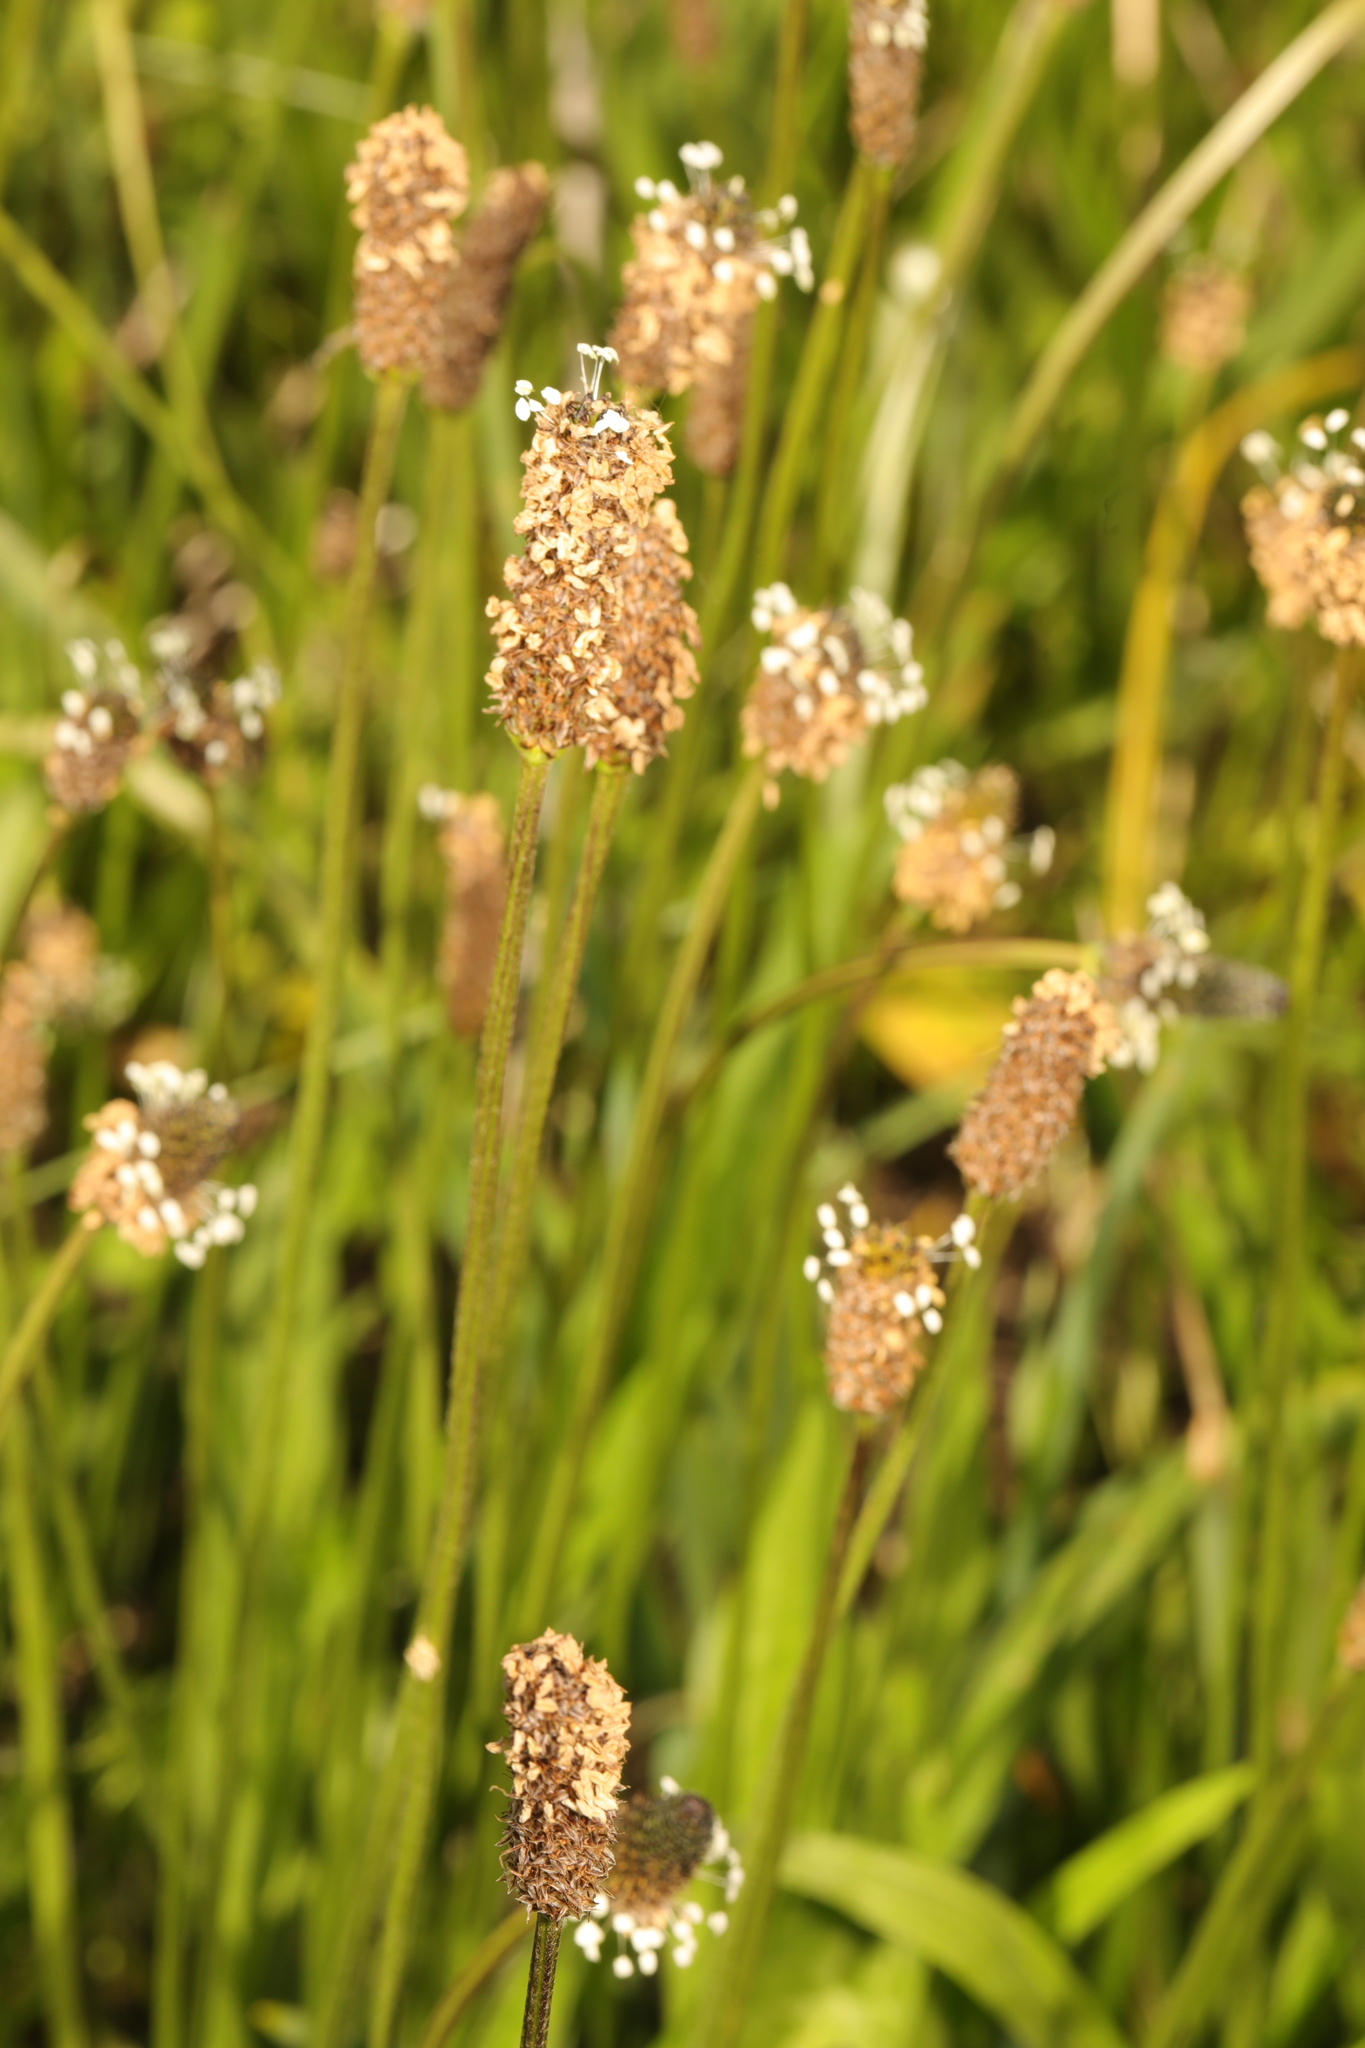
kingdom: Plantae
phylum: Tracheophyta
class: Magnoliopsida
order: Lamiales
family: Plantaginaceae
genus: Plantago
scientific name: Plantago lanceolata
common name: Ribwort plantain
